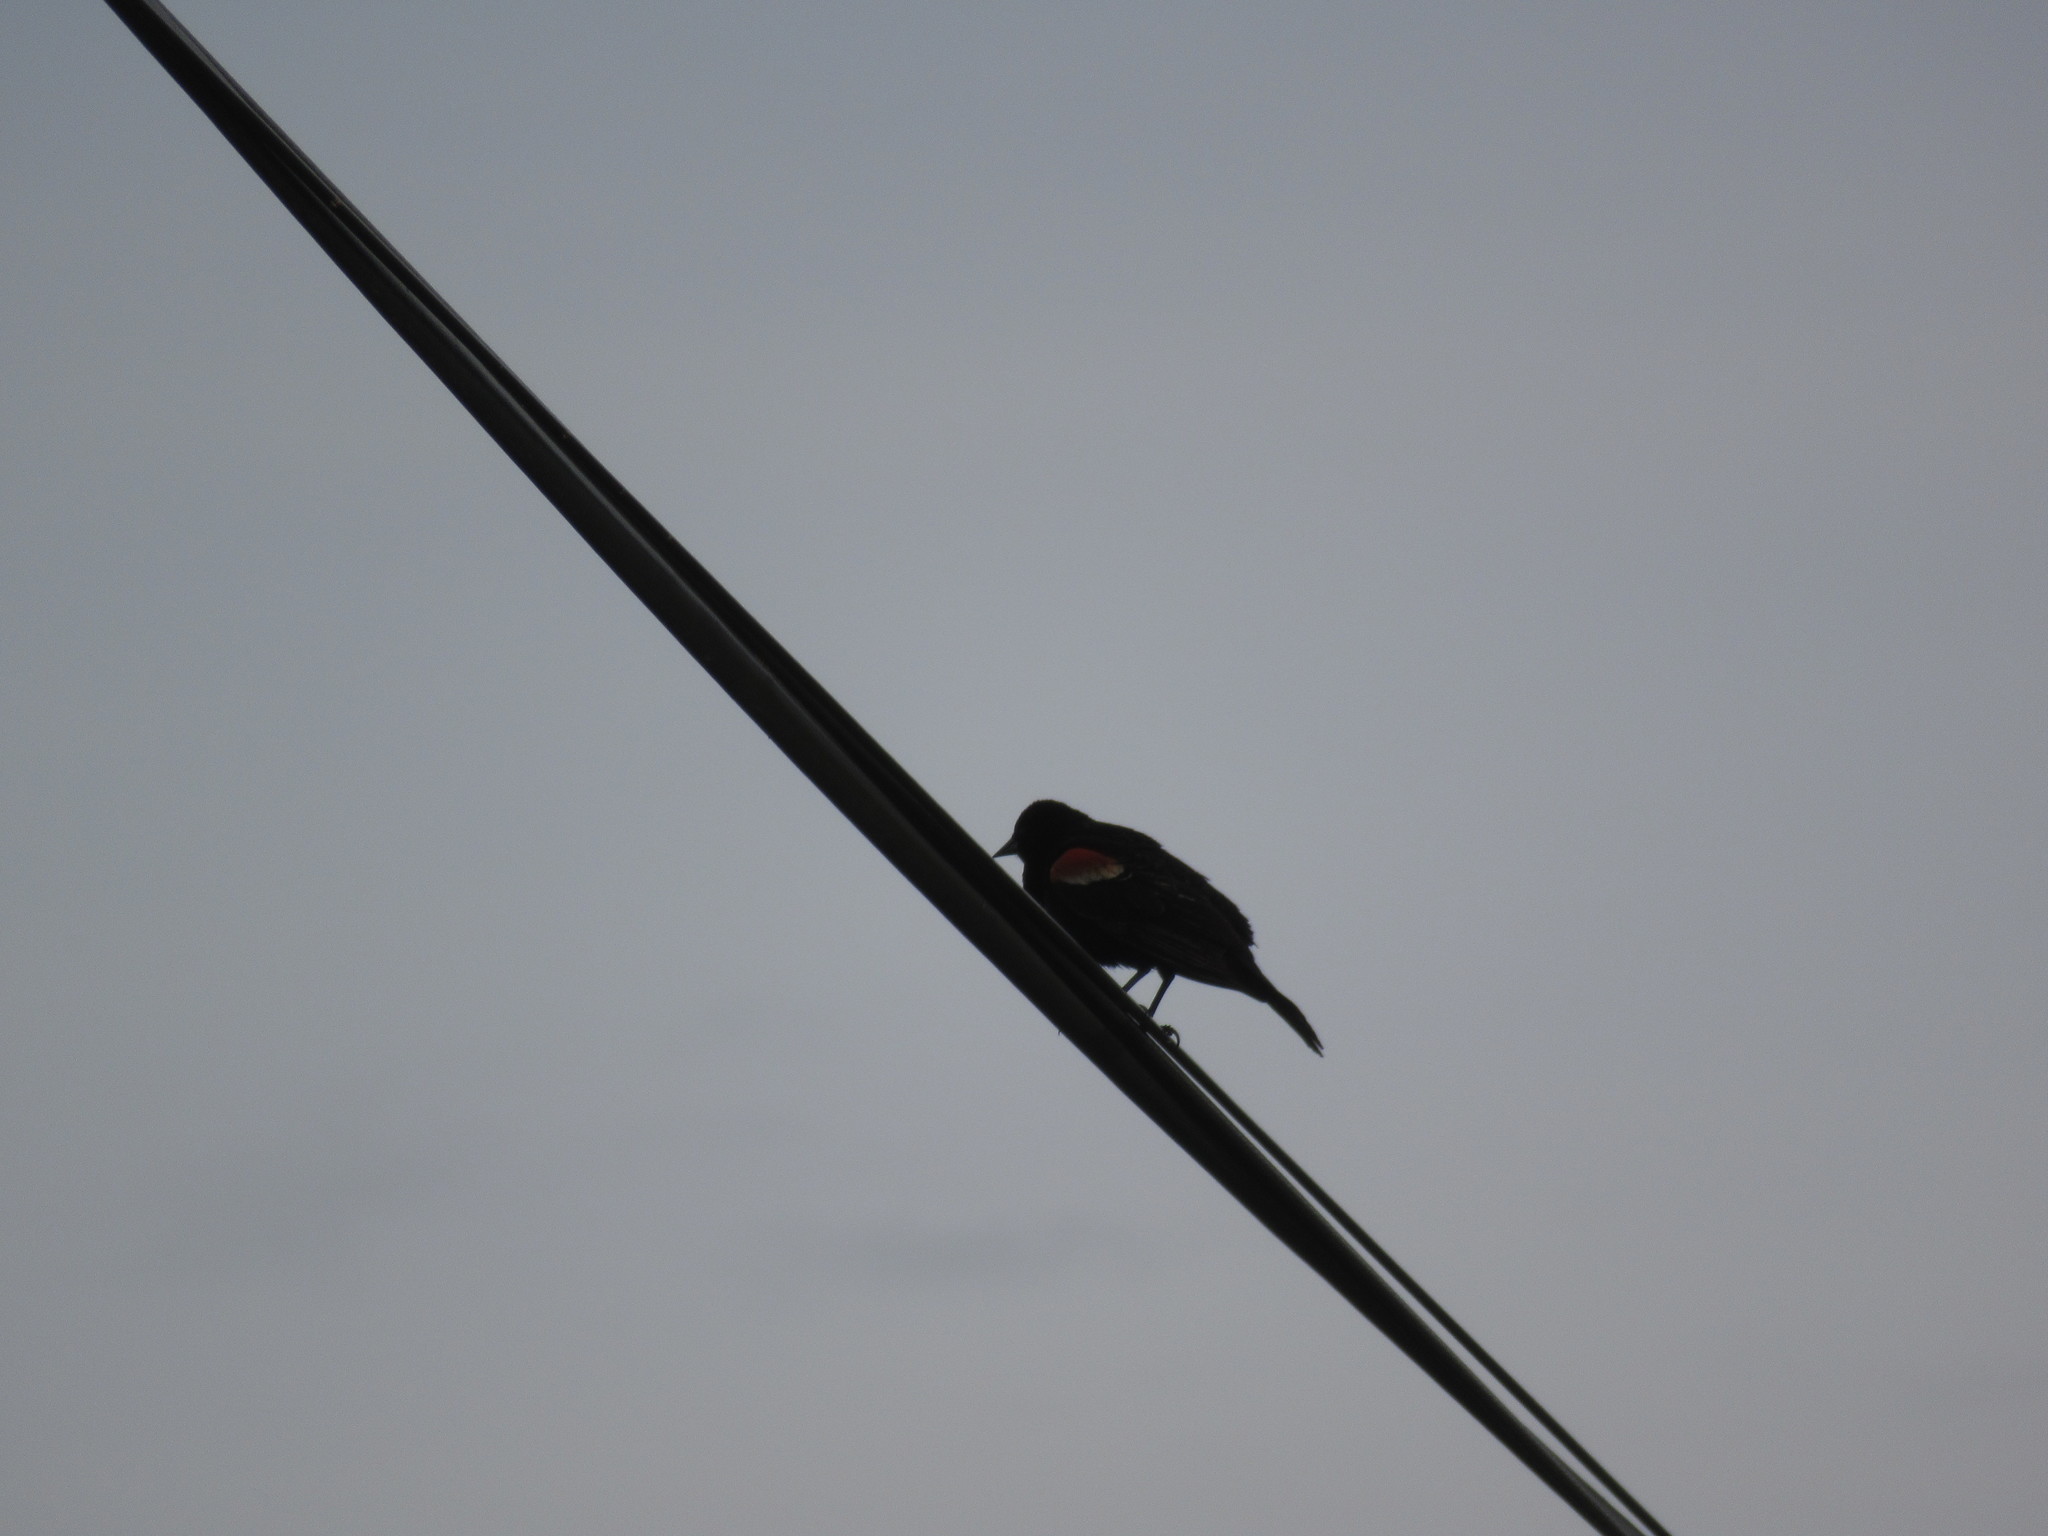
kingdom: Animalia
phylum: Chordata
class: Aves
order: Passeriformes
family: Icteridae
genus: Agelaius
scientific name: Agelaius phoeniceus
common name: Red-winged blackbird
